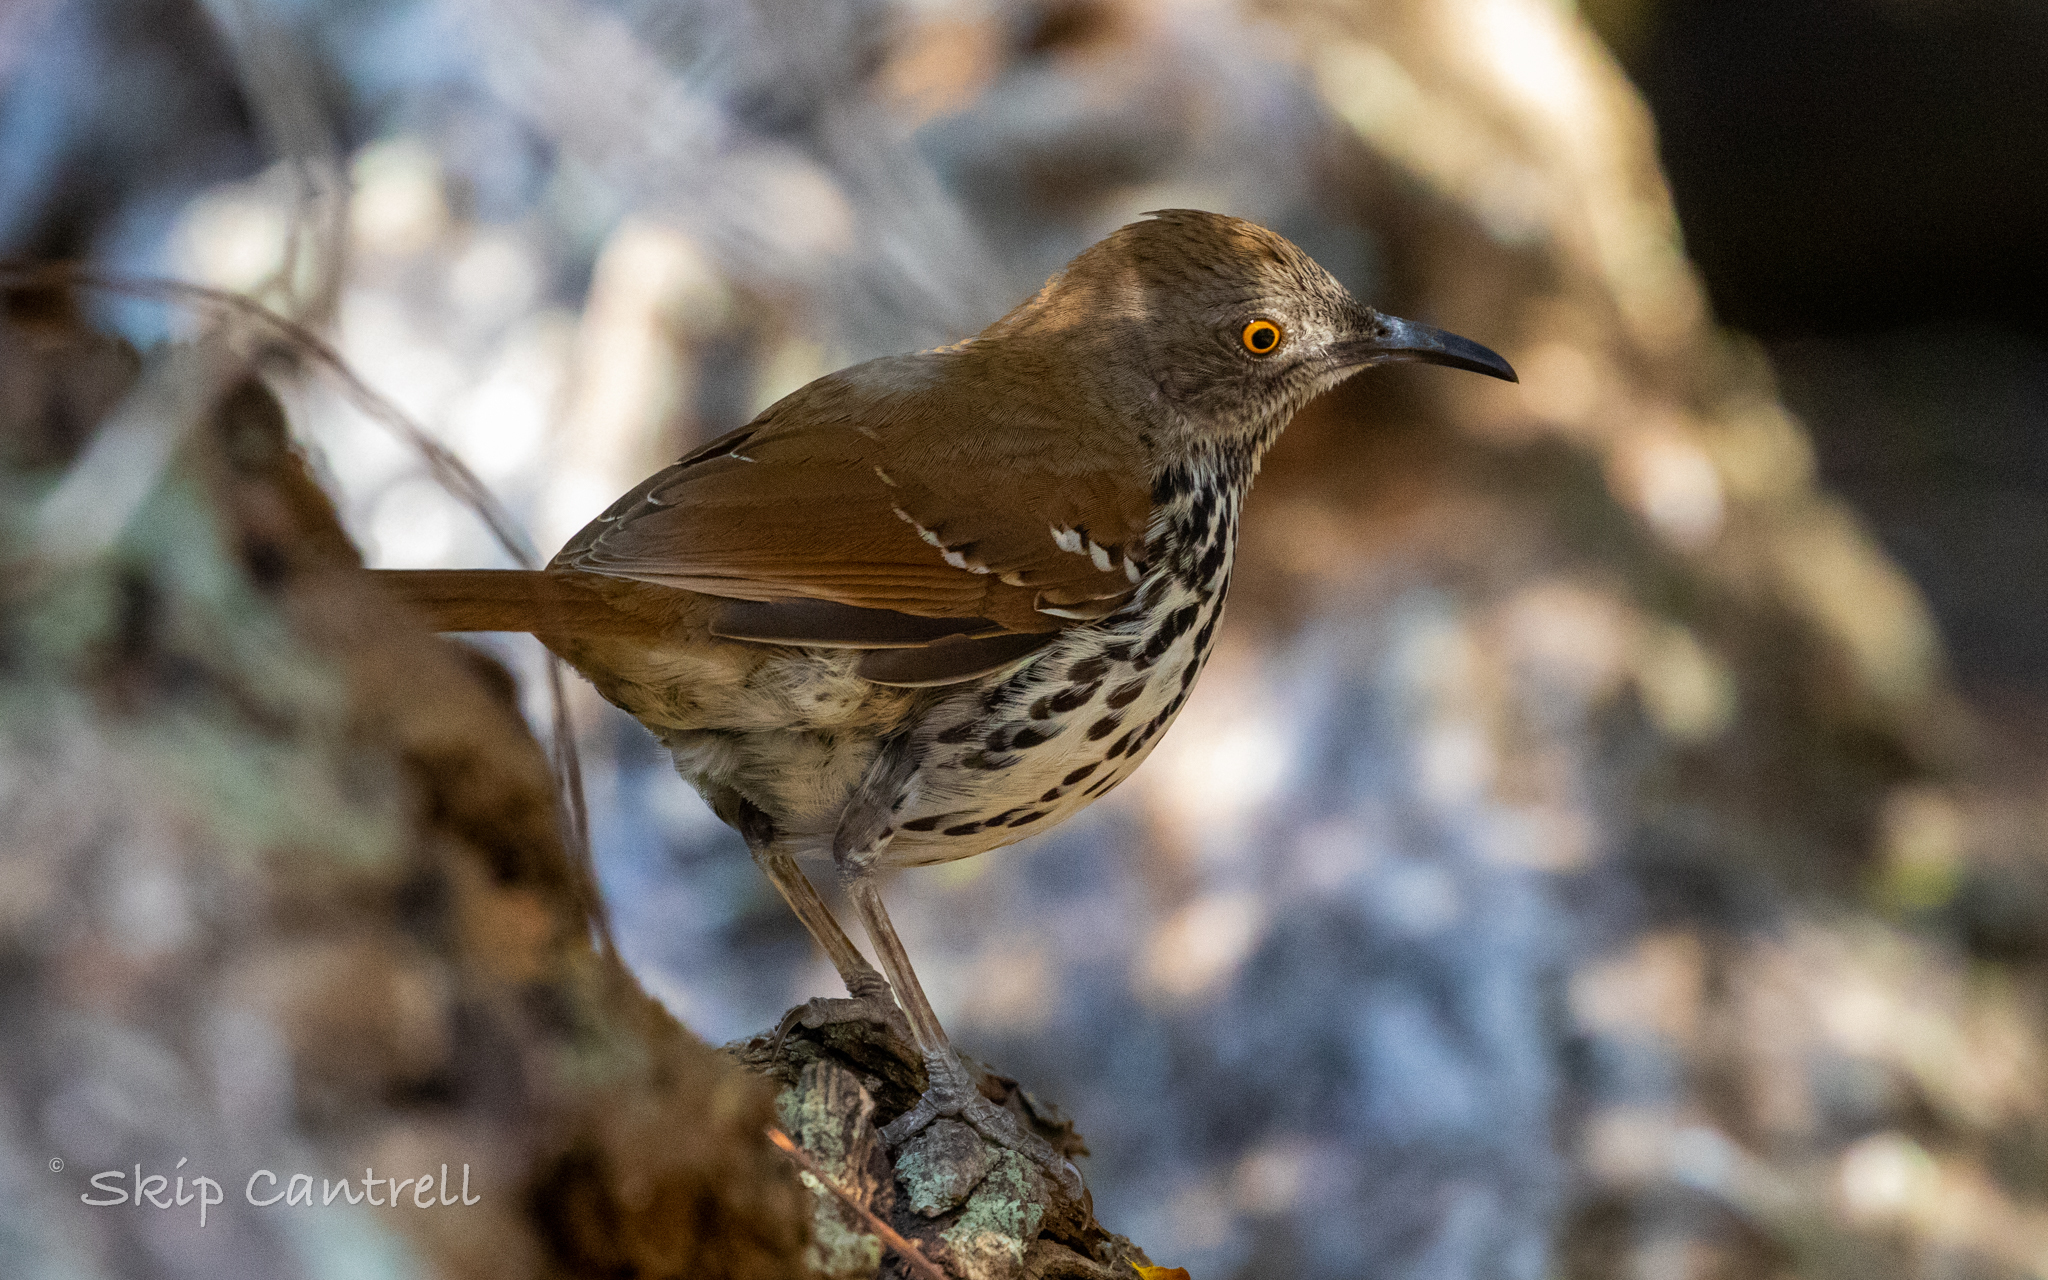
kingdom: Animalia
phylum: Chordata
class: Aves
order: Passeriformes
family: Mimidae
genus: Toxostoma
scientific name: Toxostoma longirostre
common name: Long-billed thrasher
